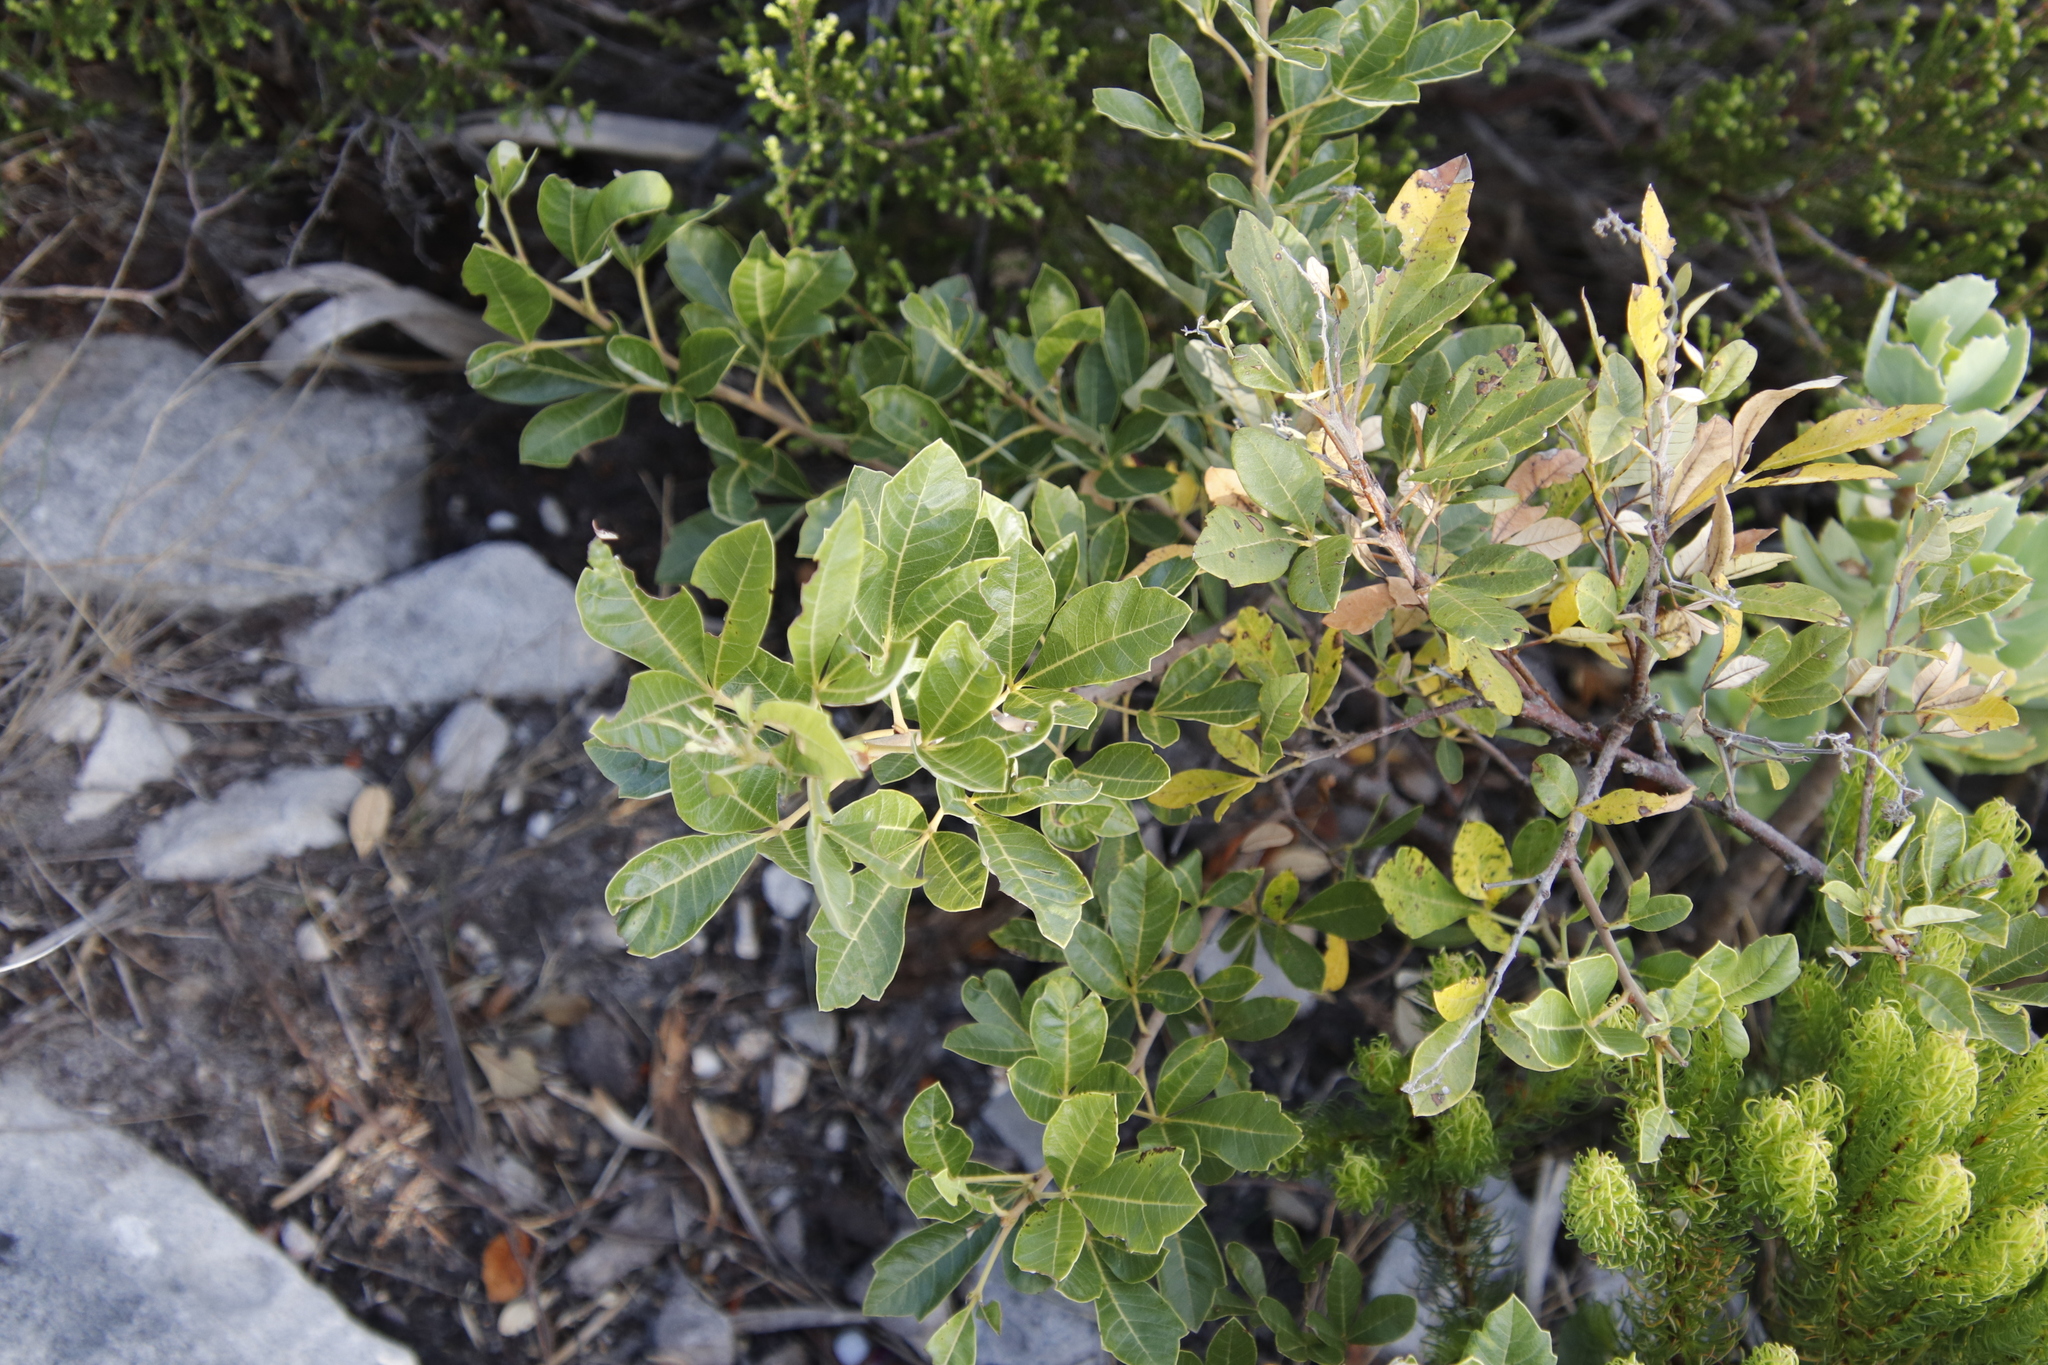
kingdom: Plantae
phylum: Tracheophyta
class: Magnoliopsida
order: Sapindales
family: Anacardiaceae
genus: Searsia
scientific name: Searsia tomentosa
